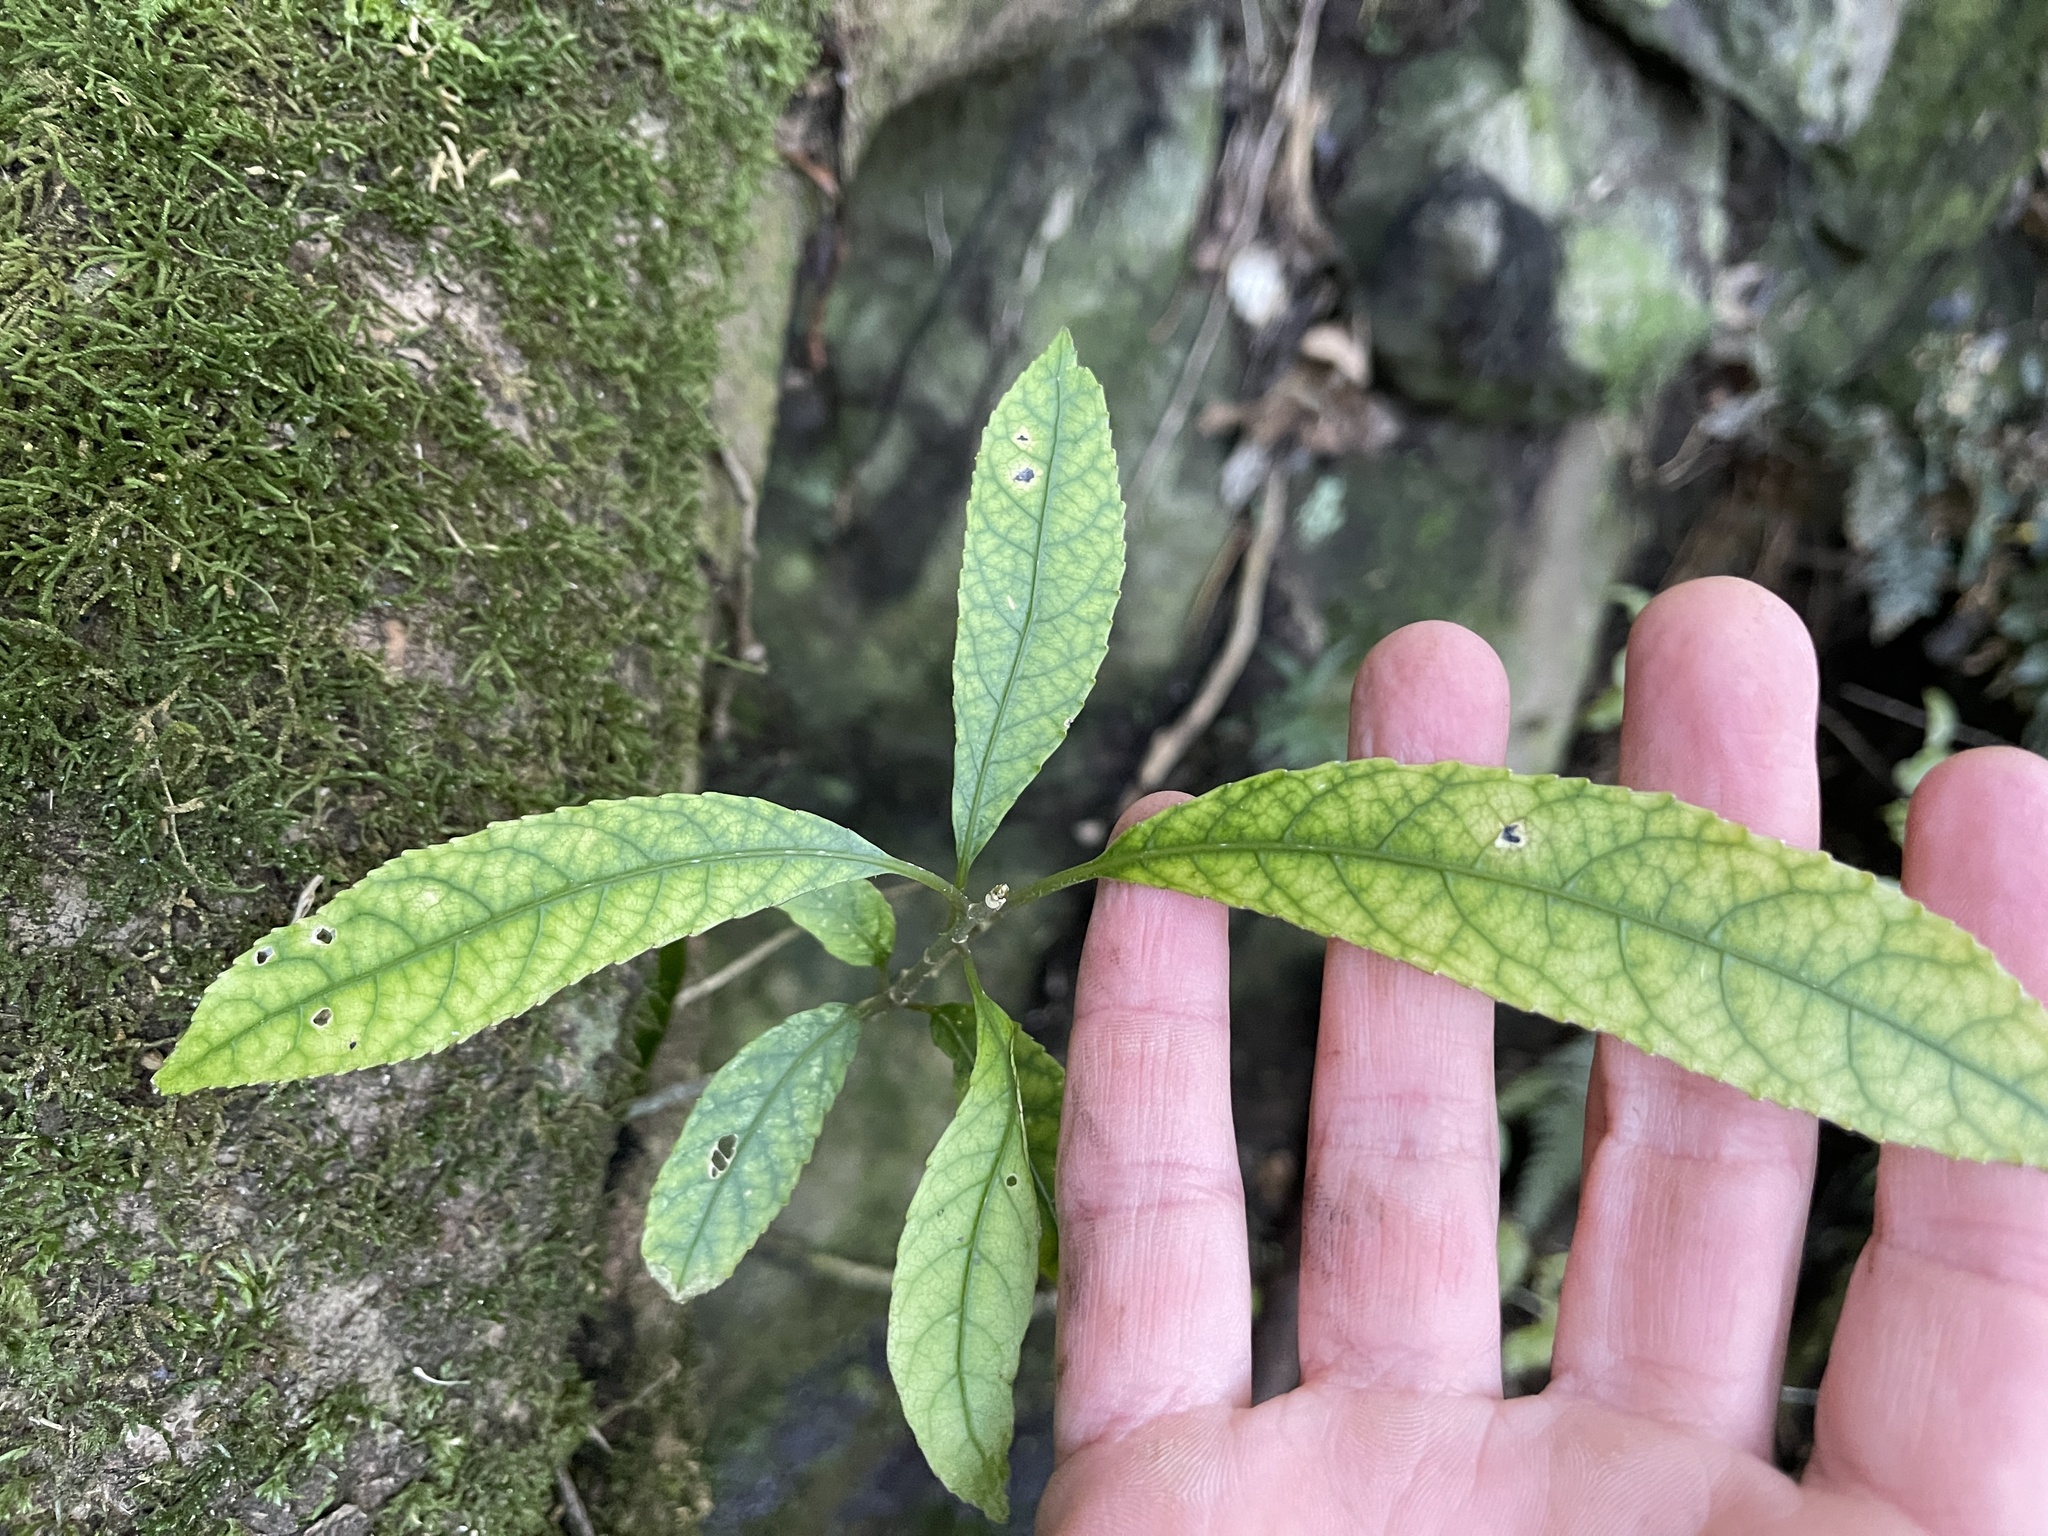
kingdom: Plantae
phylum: Tracheophyta
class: Magnoliopsida
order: Malpighiales
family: Violaceae
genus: Melicytus
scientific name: Melicytus ramiflorus
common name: Mahoe
